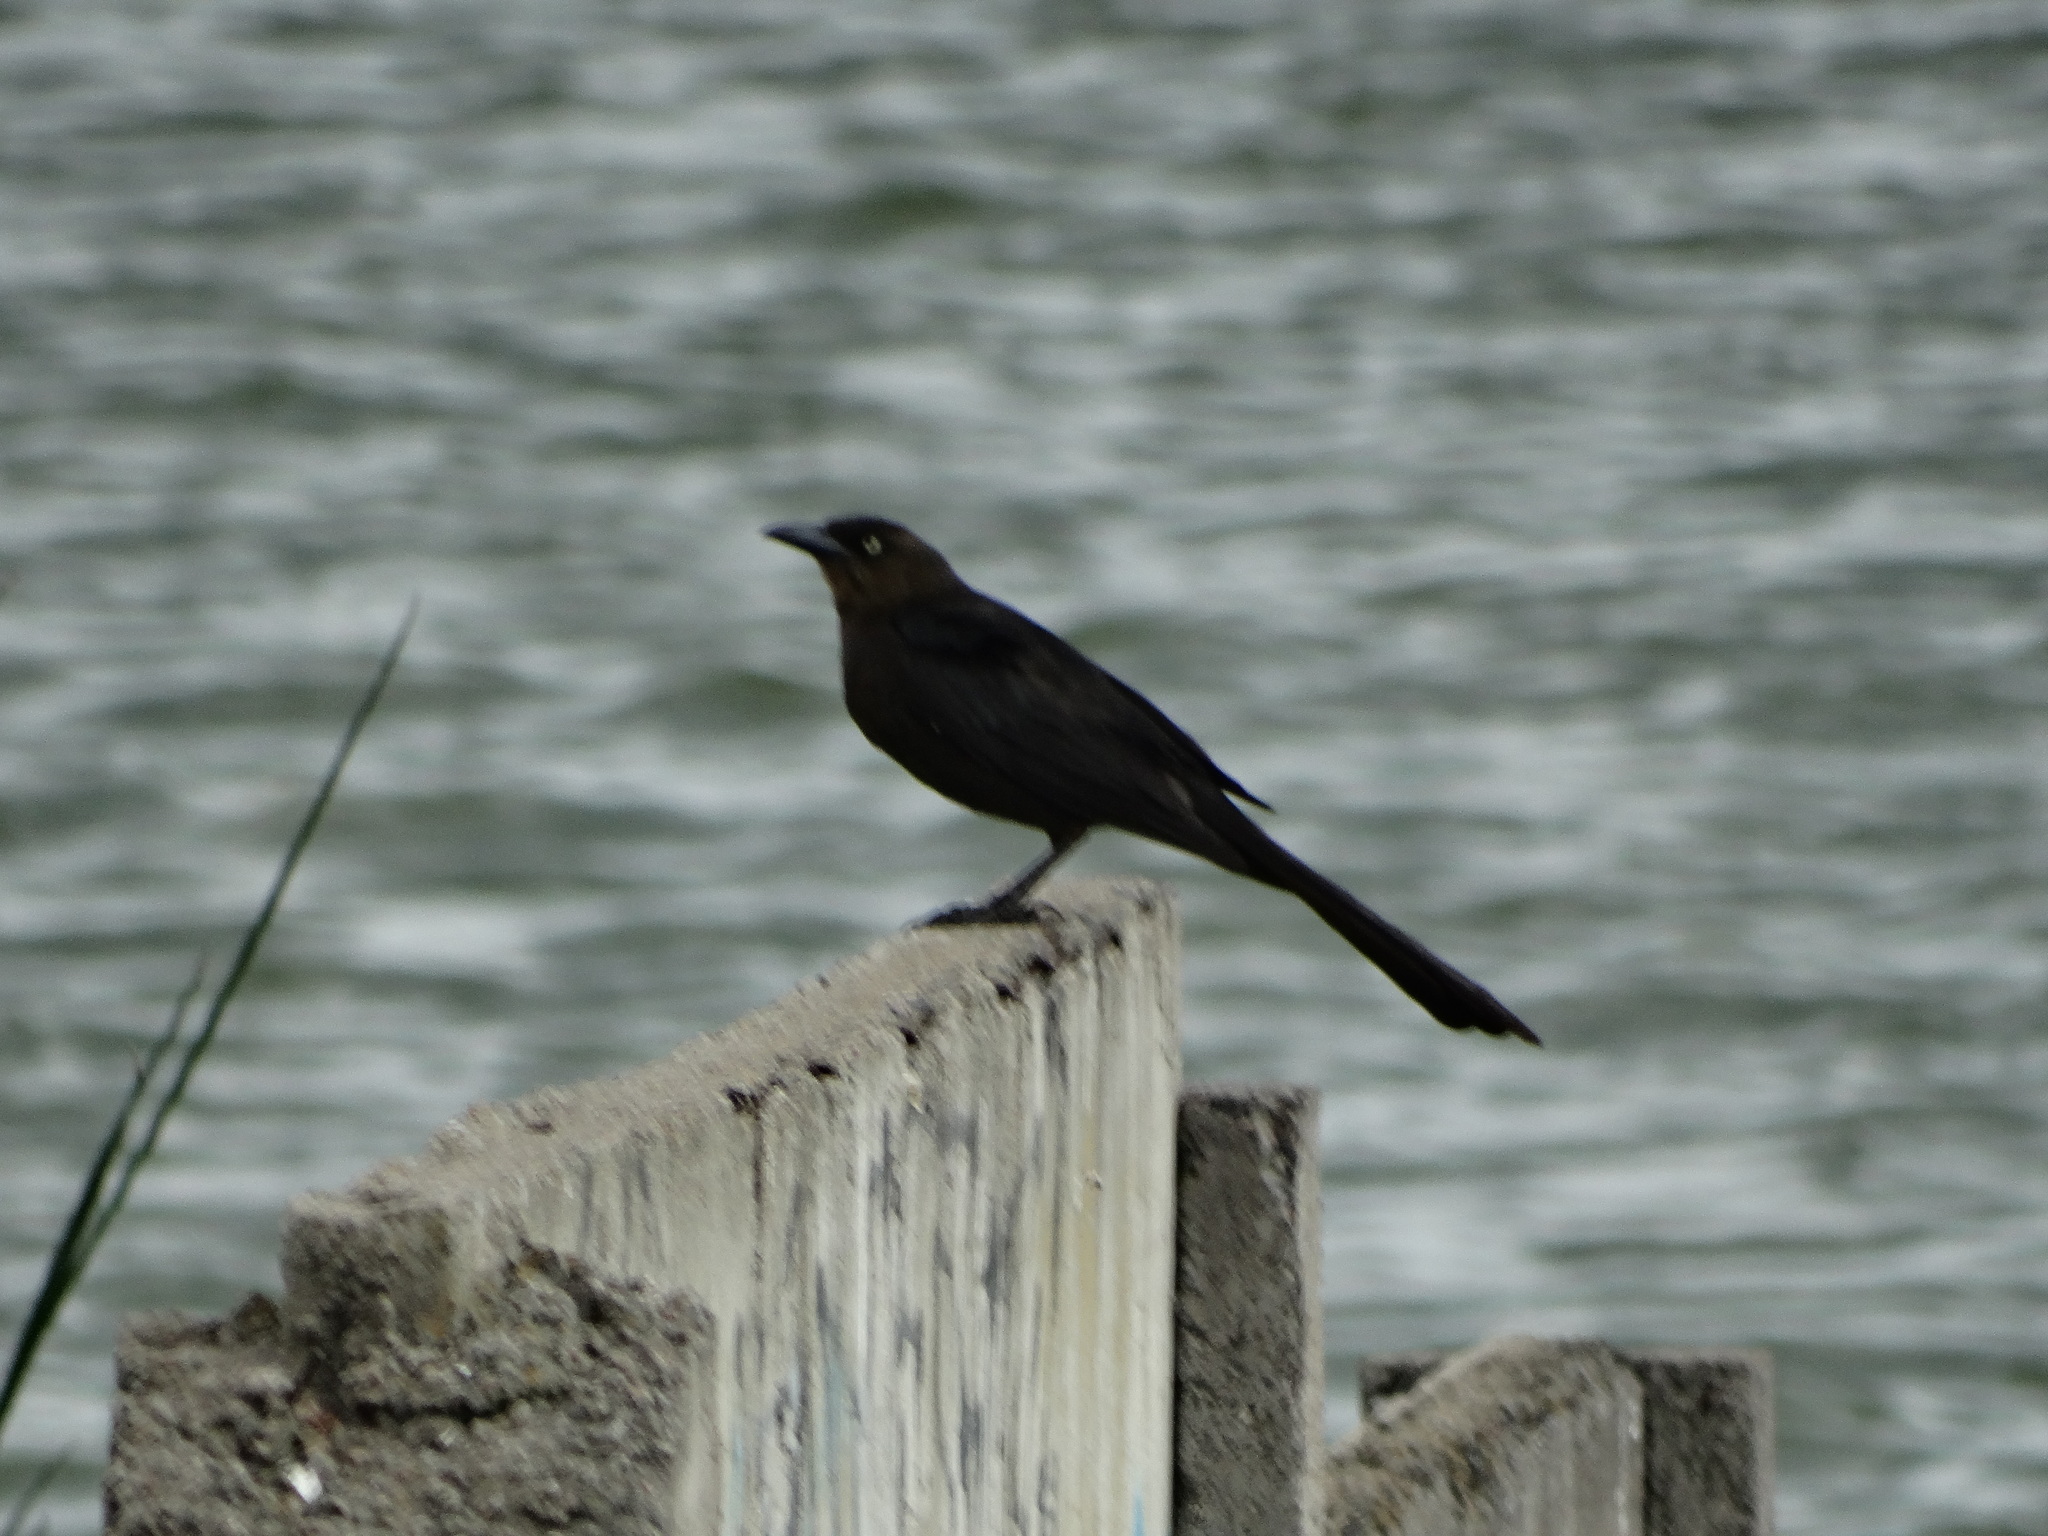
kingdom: Animalia
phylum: Chordata
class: Aves
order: Passeriformes
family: Icteridae
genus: Quiscalus
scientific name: Quiscalus mexicanus
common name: Great-tailed grackle
